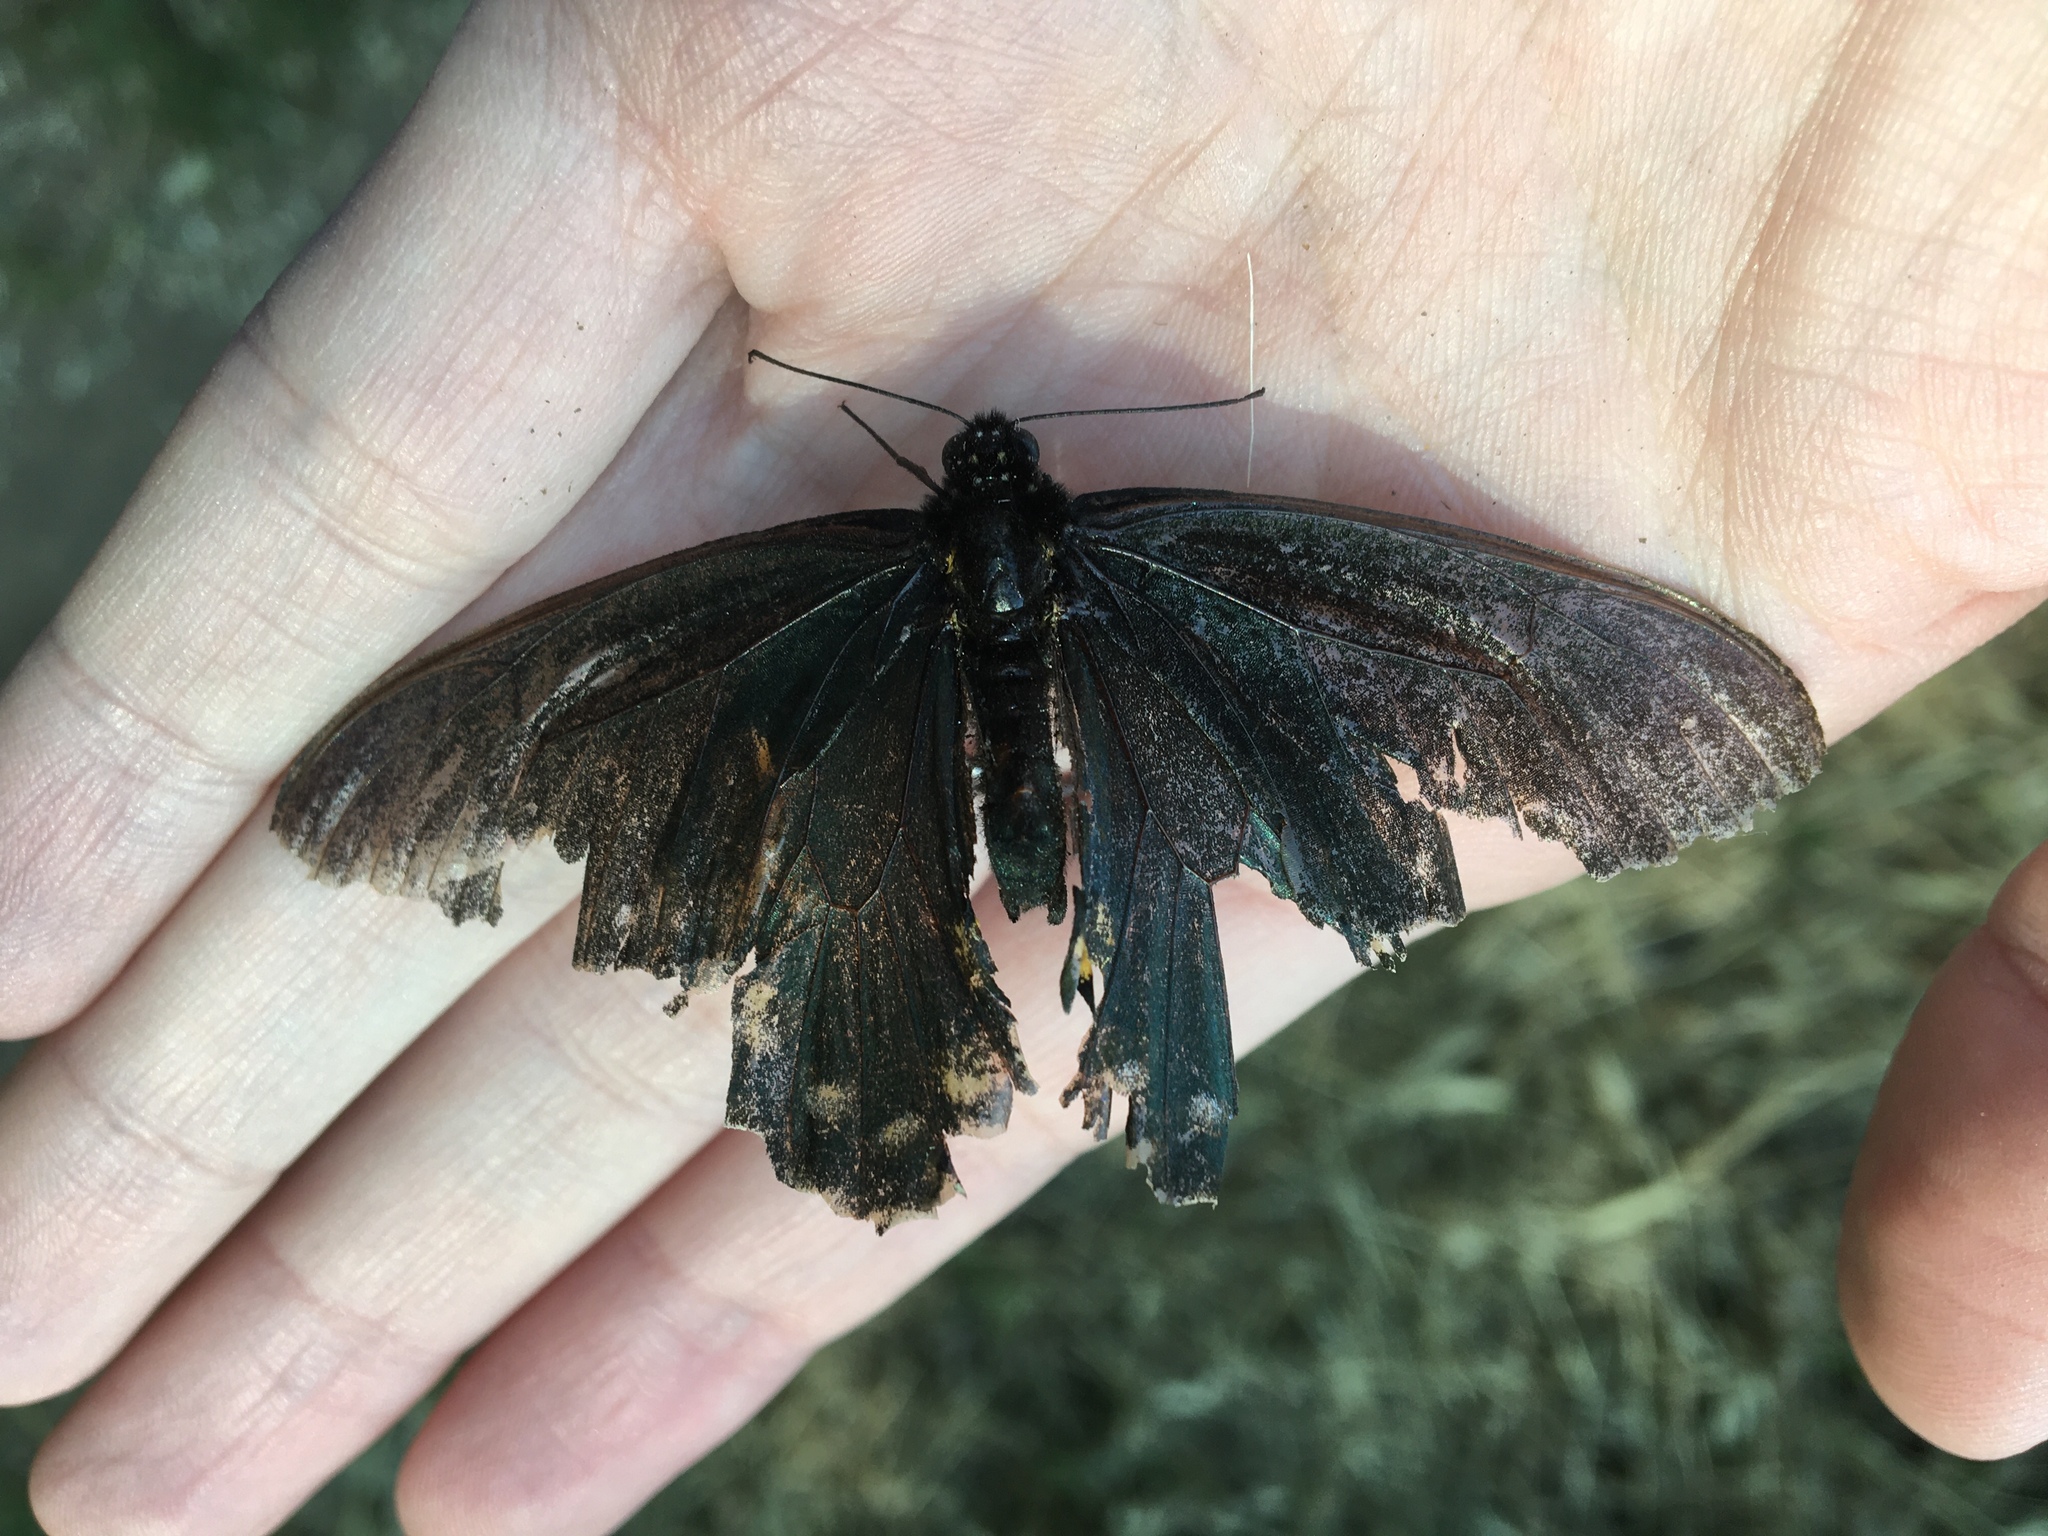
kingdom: Animalia
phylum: Arthropoda
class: Insecta
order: Lepidoptera
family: Papilionidae
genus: Battus
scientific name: Battus philenor
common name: Pipevine swallowtail
